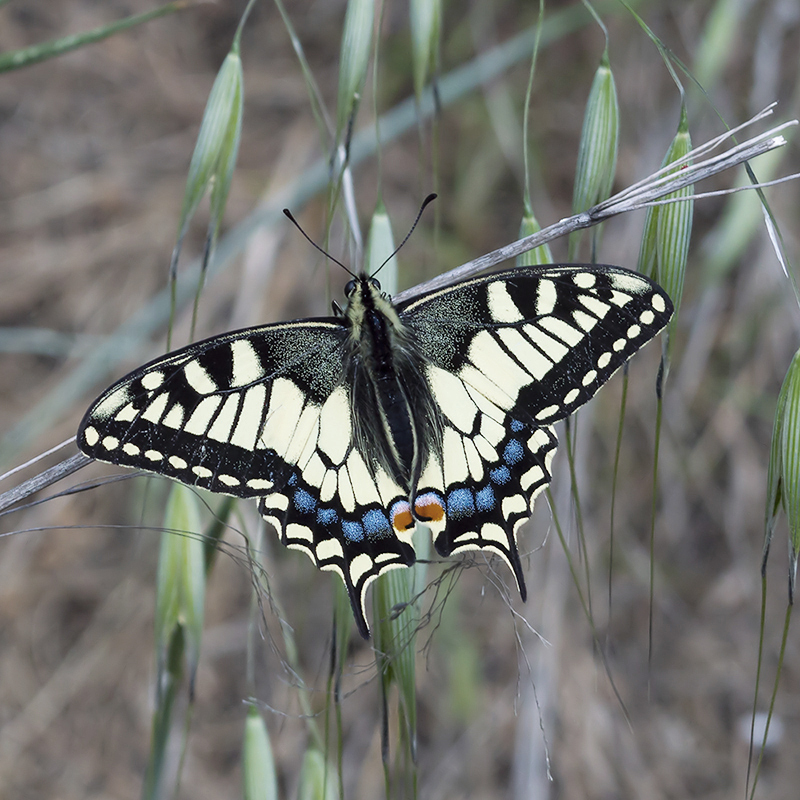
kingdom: Animalia
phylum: Arthropoda
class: Insecta
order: Lepidoptera
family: Papilionidae
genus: Papilio
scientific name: Papilio machaon
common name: Swallowtail
